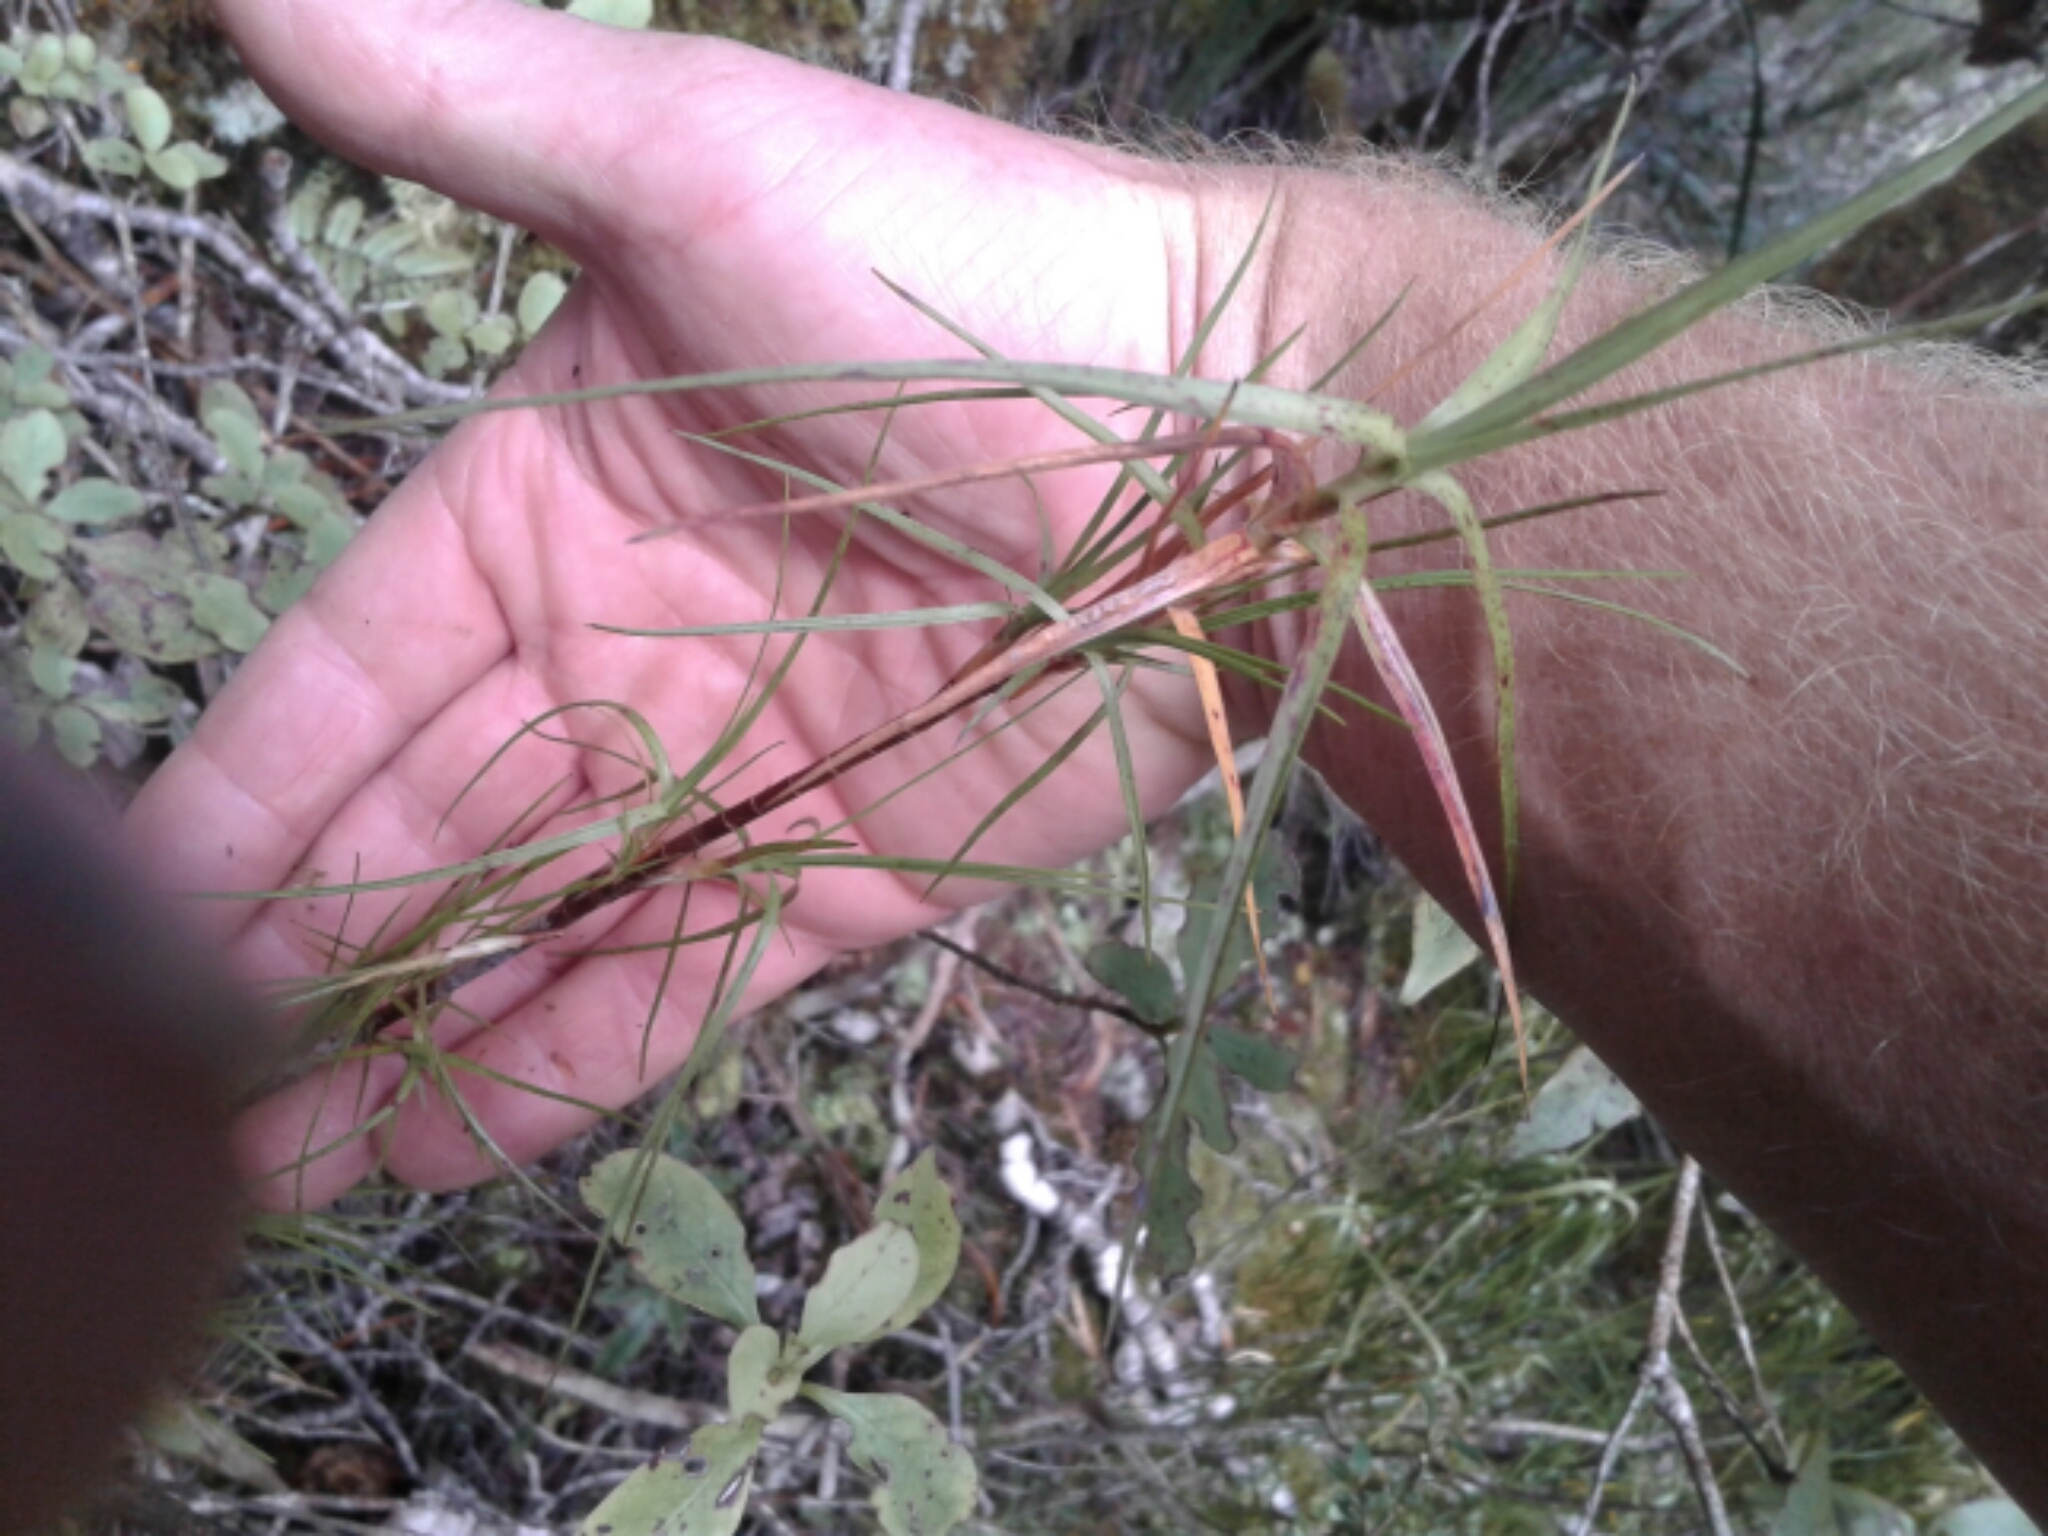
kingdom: Plantae
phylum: Tracheophyta
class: Magnoliopsida
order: Ericales
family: Ericaceae
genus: Dracophyllum
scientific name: Dracophyllum
